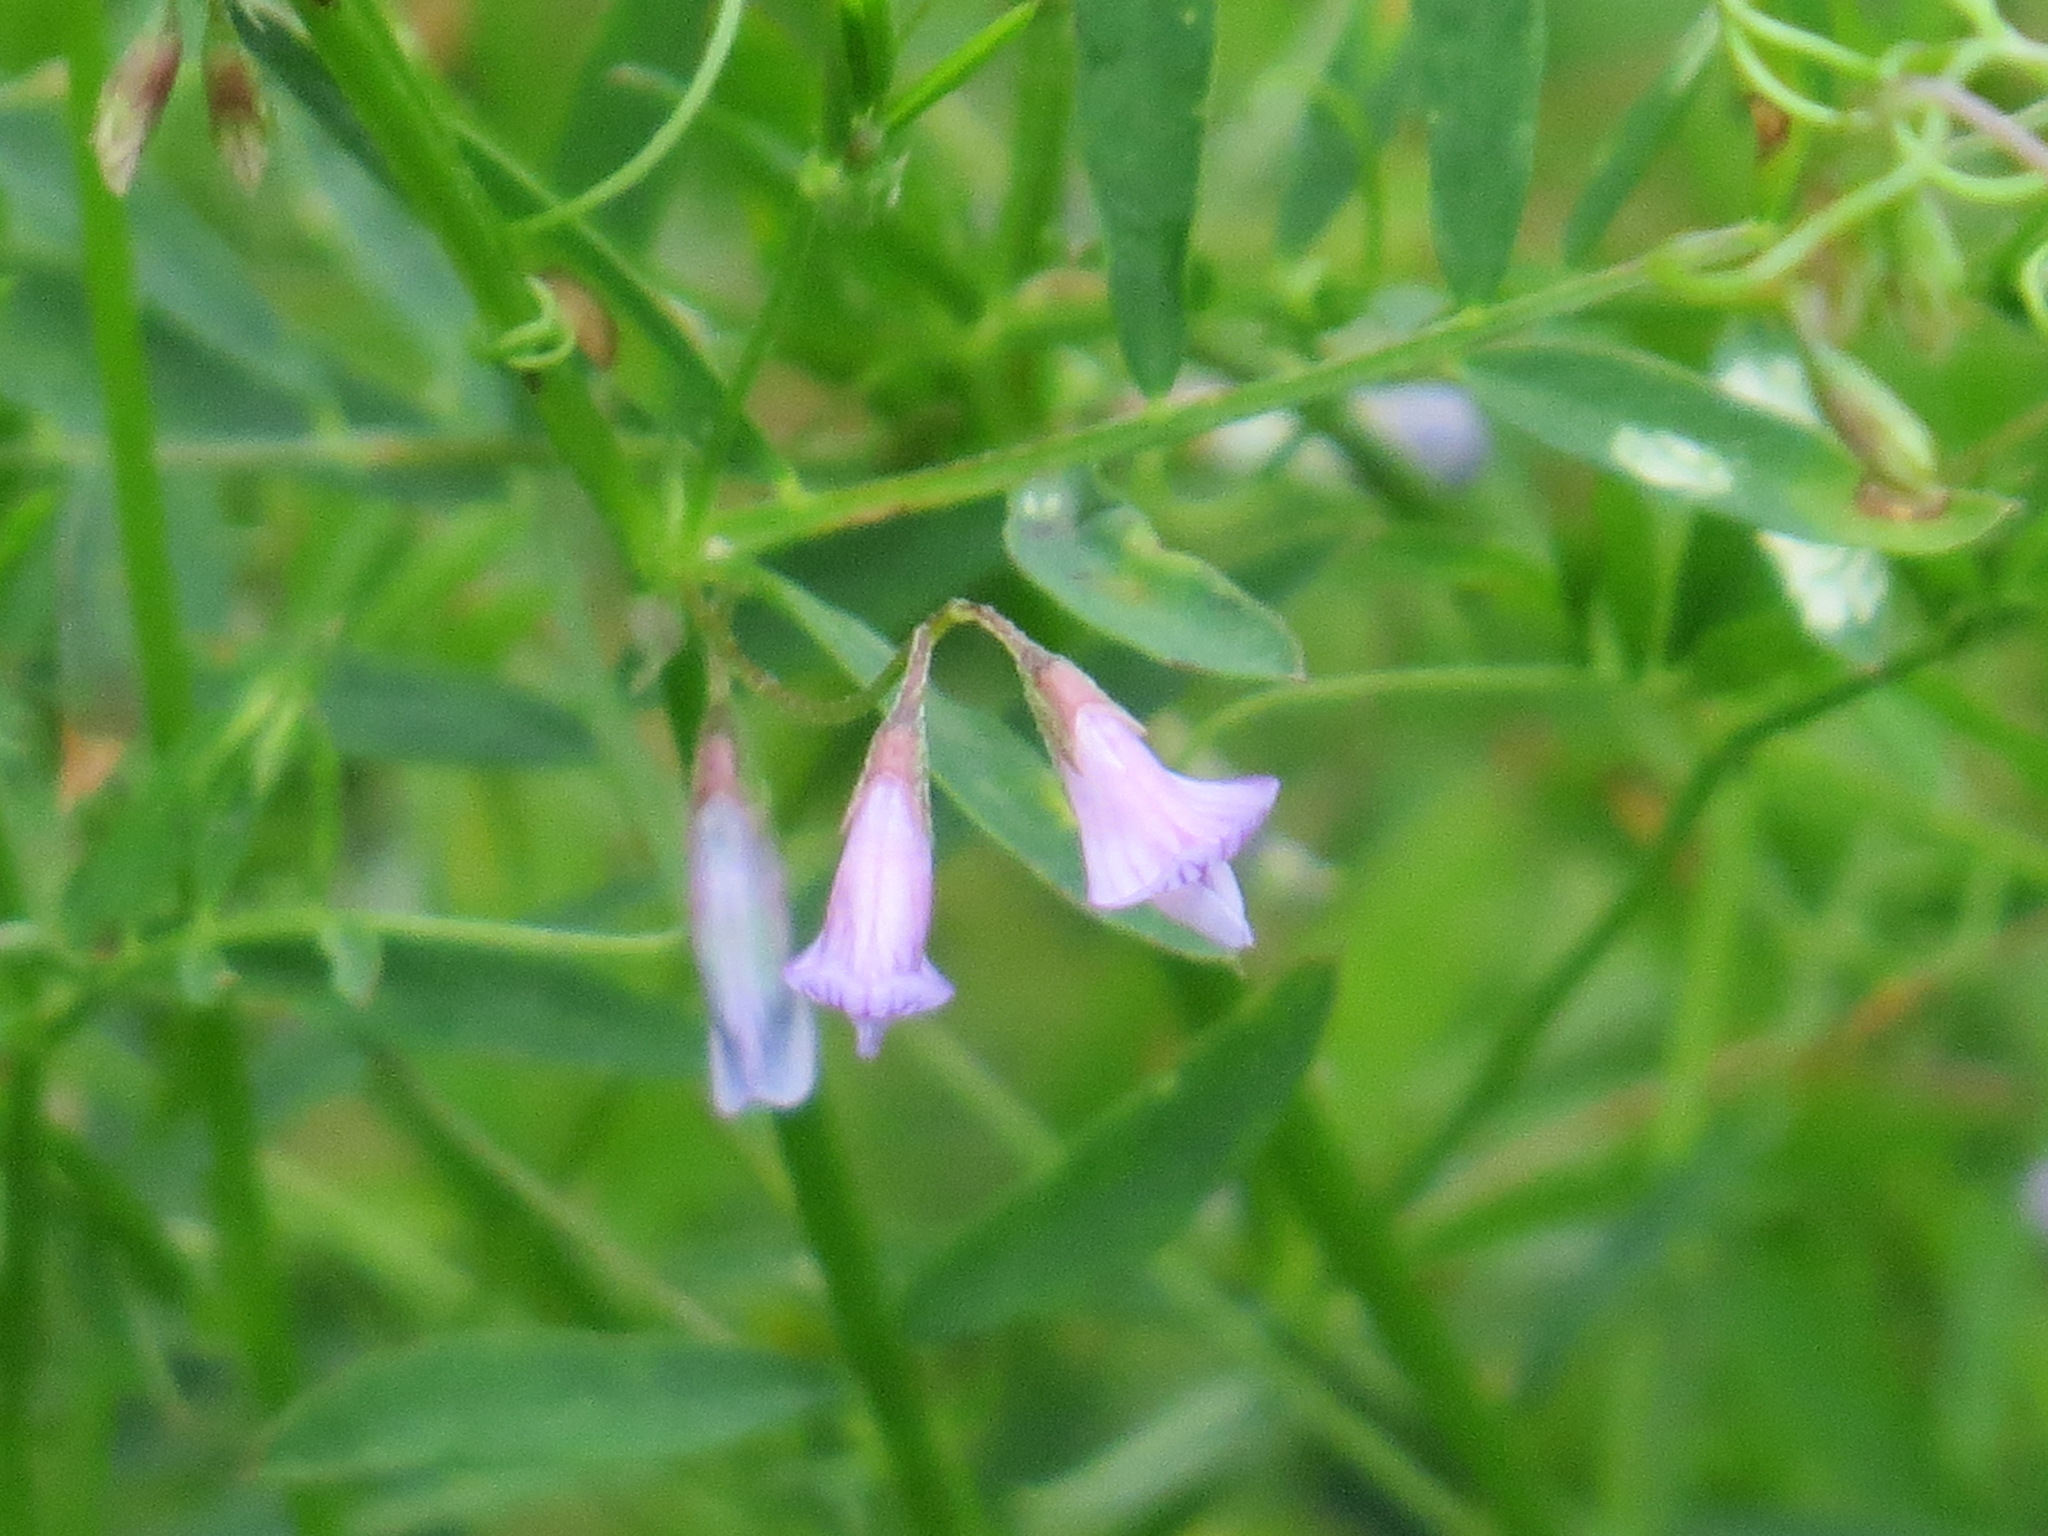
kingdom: Plantae
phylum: Tracheophyta
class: Magnoliopsida
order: Fabales
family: Fabaceae
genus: Vicia
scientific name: Vicia tetrasperma
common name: Smooth tare
